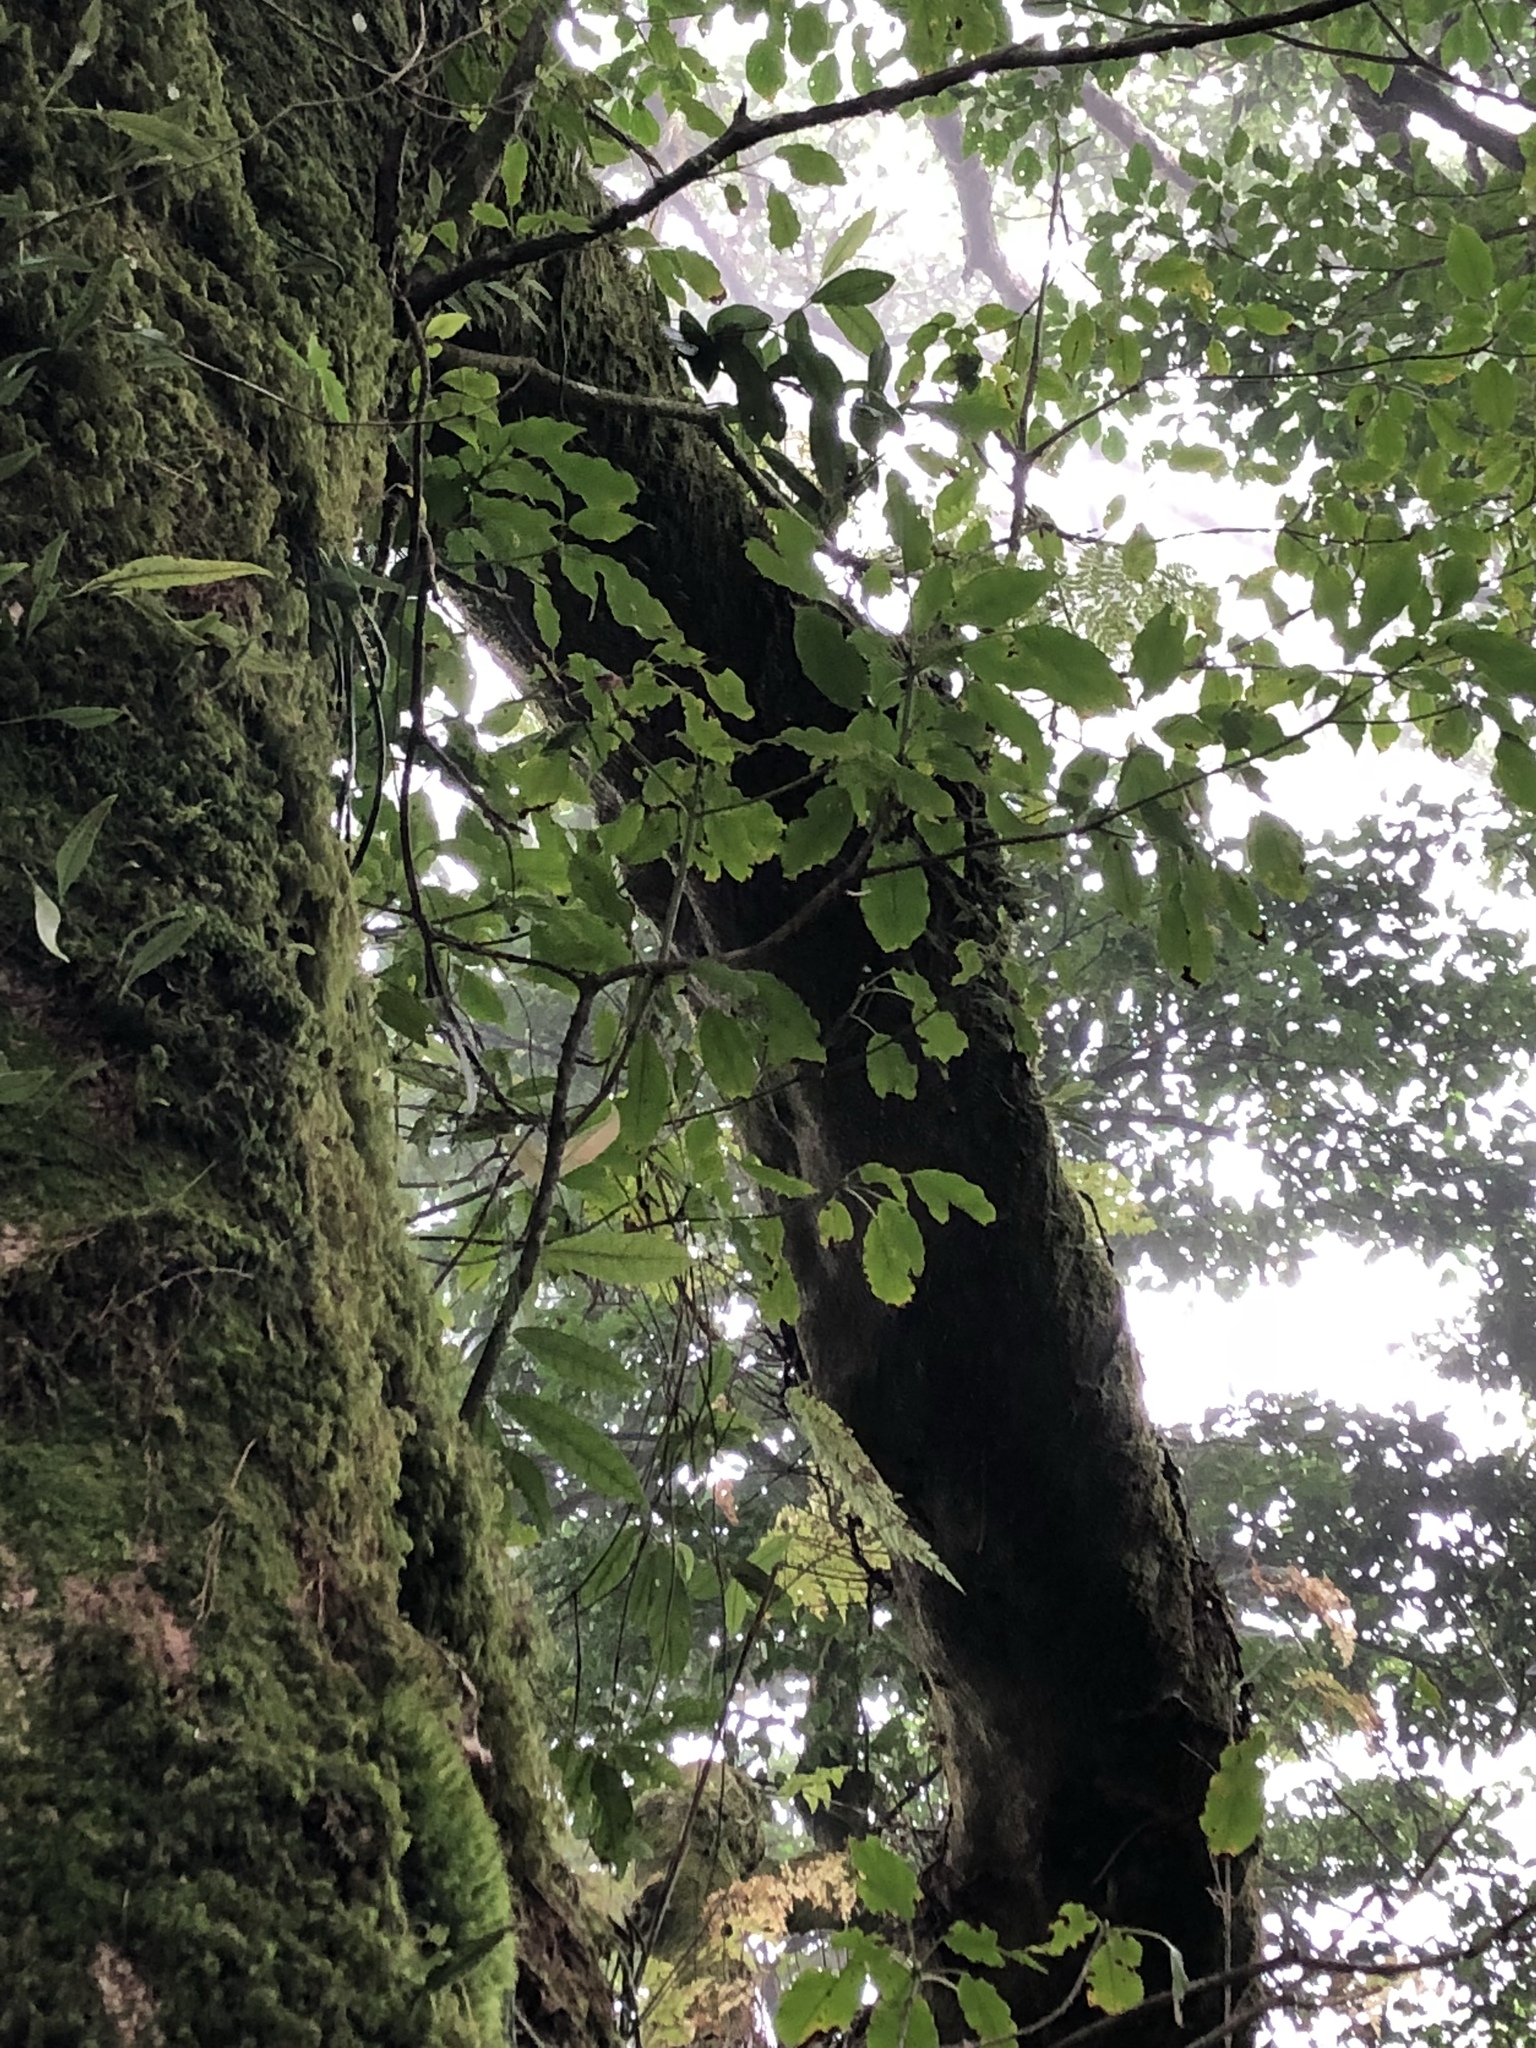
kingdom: Plantae
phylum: Tracheophyta
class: Magnoliopsida
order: Trochodendrales
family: Trochodendraceae
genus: Trochodendron
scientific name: Trochodendron aralioides
